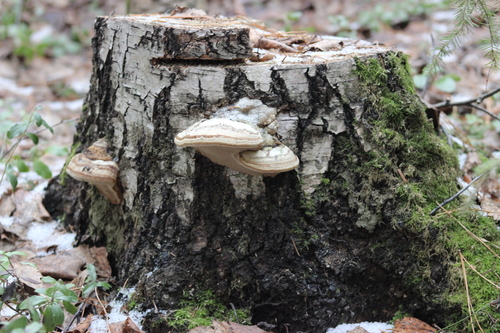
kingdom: Fungi
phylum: Basidiomycota
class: Agaricomycetes
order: Polyporales
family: Polyporaceae
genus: Fomes
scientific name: Fomes fomentarius
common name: Hoof fungus
